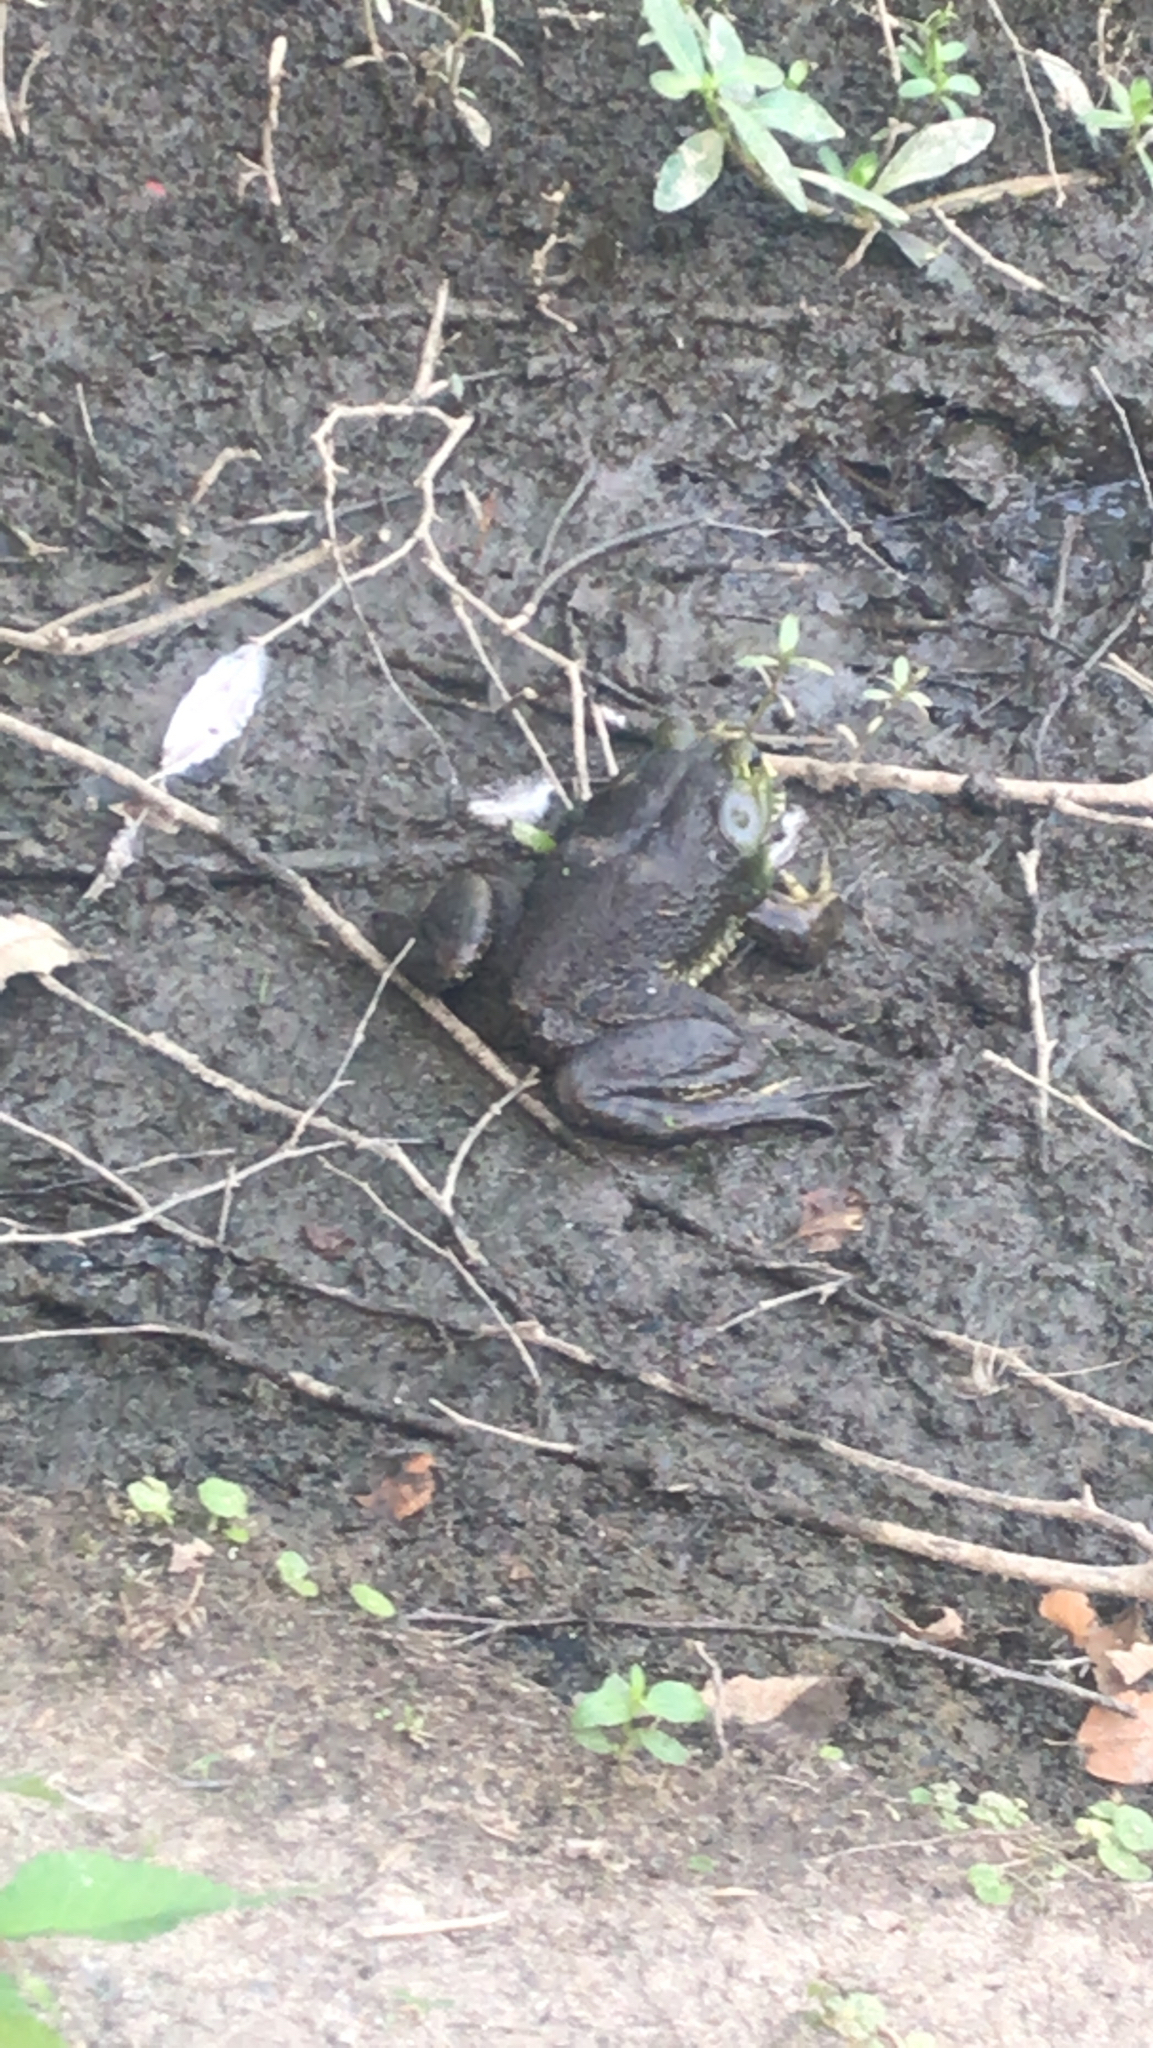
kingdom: Animalia
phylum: Chordata
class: Amphibia
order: Anura
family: Ranidae
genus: Lithobates
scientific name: Lithobates catesbeianus
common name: American bullfrog
